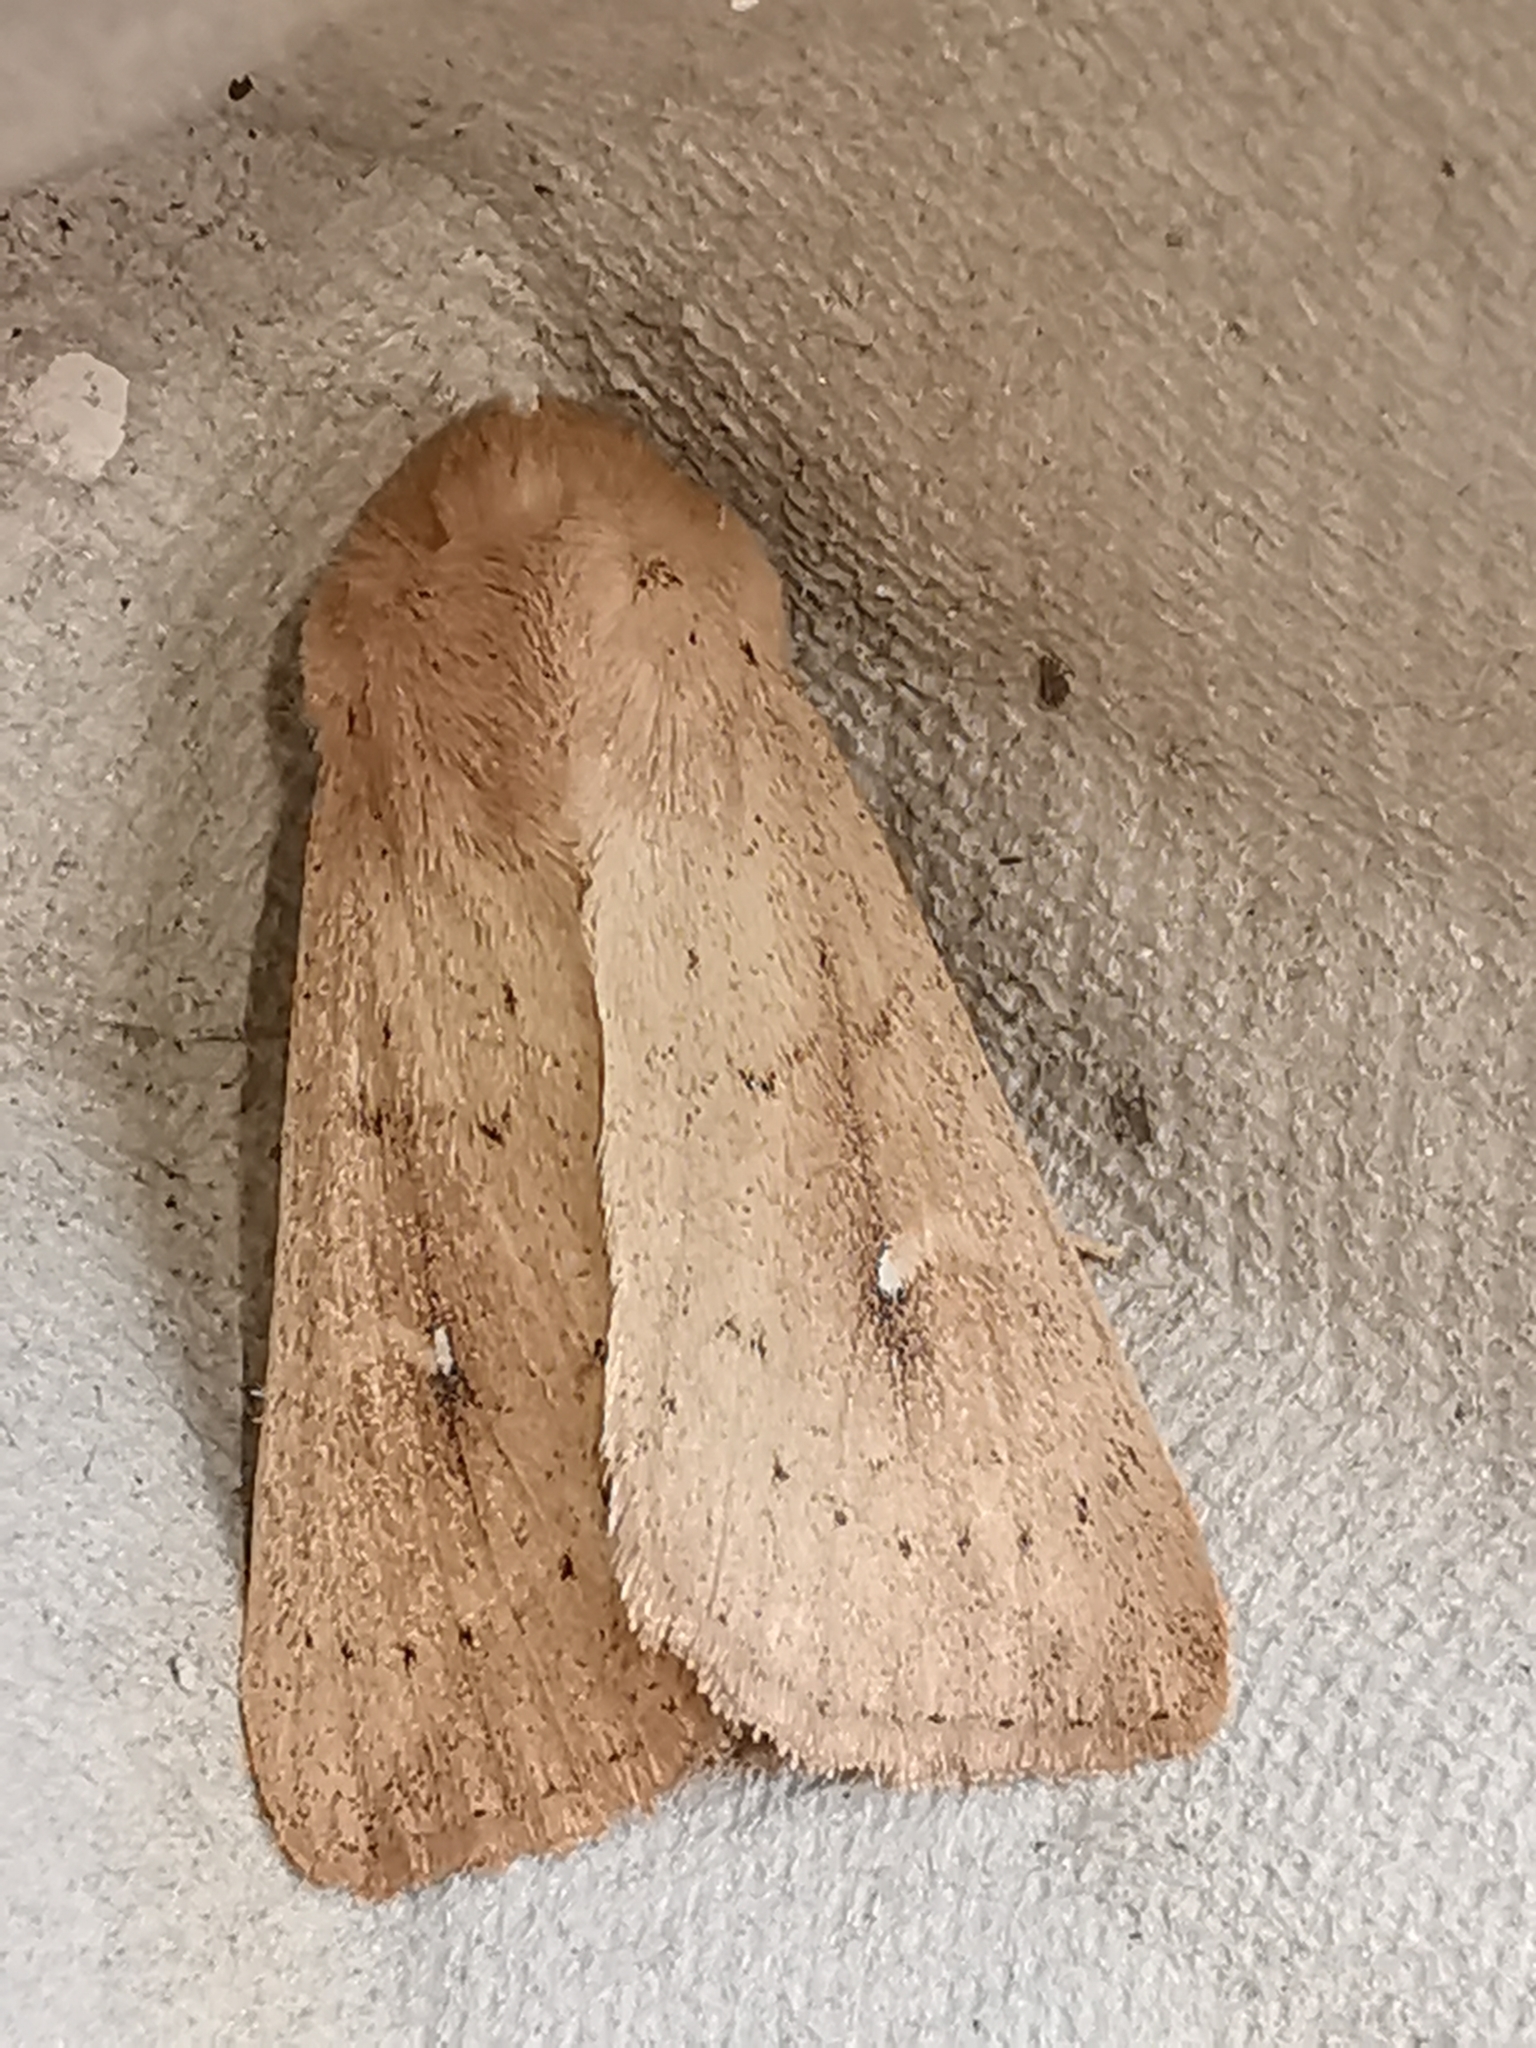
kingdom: Animalia
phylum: Arthropoda
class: Insecta
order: Lepidoptera
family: Noctuidae
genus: Mythimna
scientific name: Mythimna ferrago
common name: Clay
